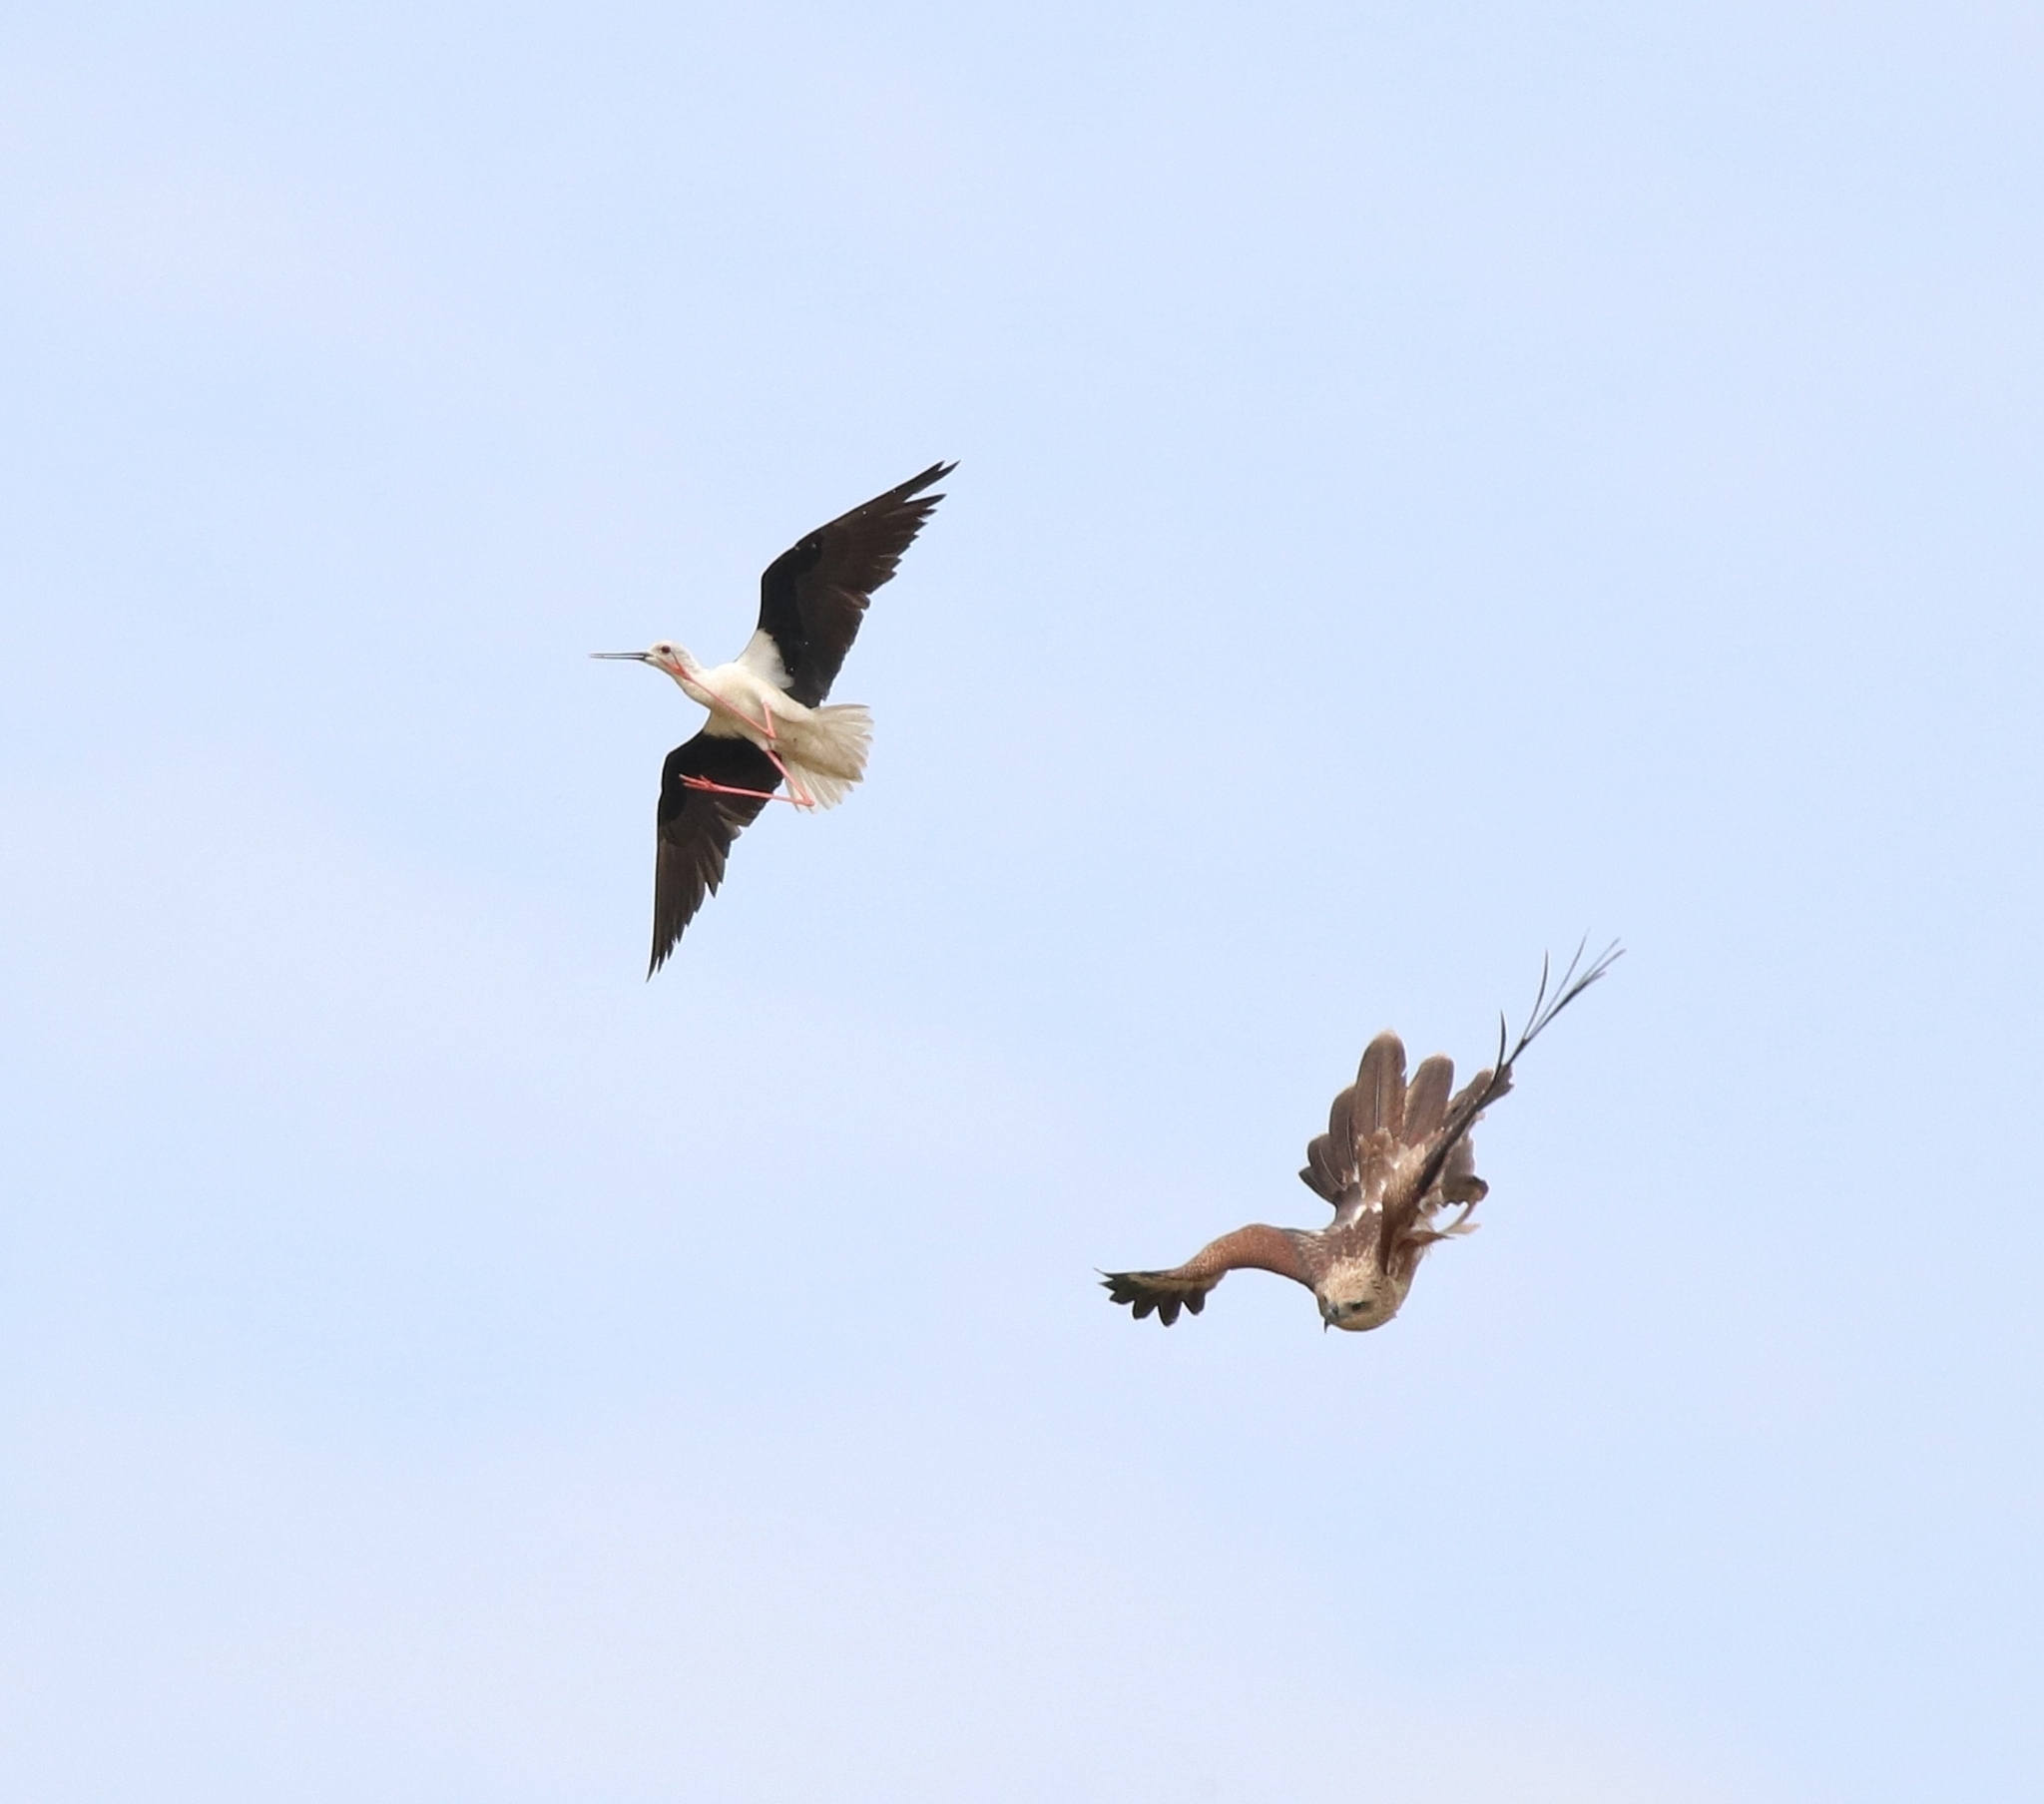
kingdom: Animalia
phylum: Chordata
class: Aves
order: Charadriiformes
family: Recurvirostridae
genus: Himantopus
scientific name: Himantopus himantopus
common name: Black-winged stilt
